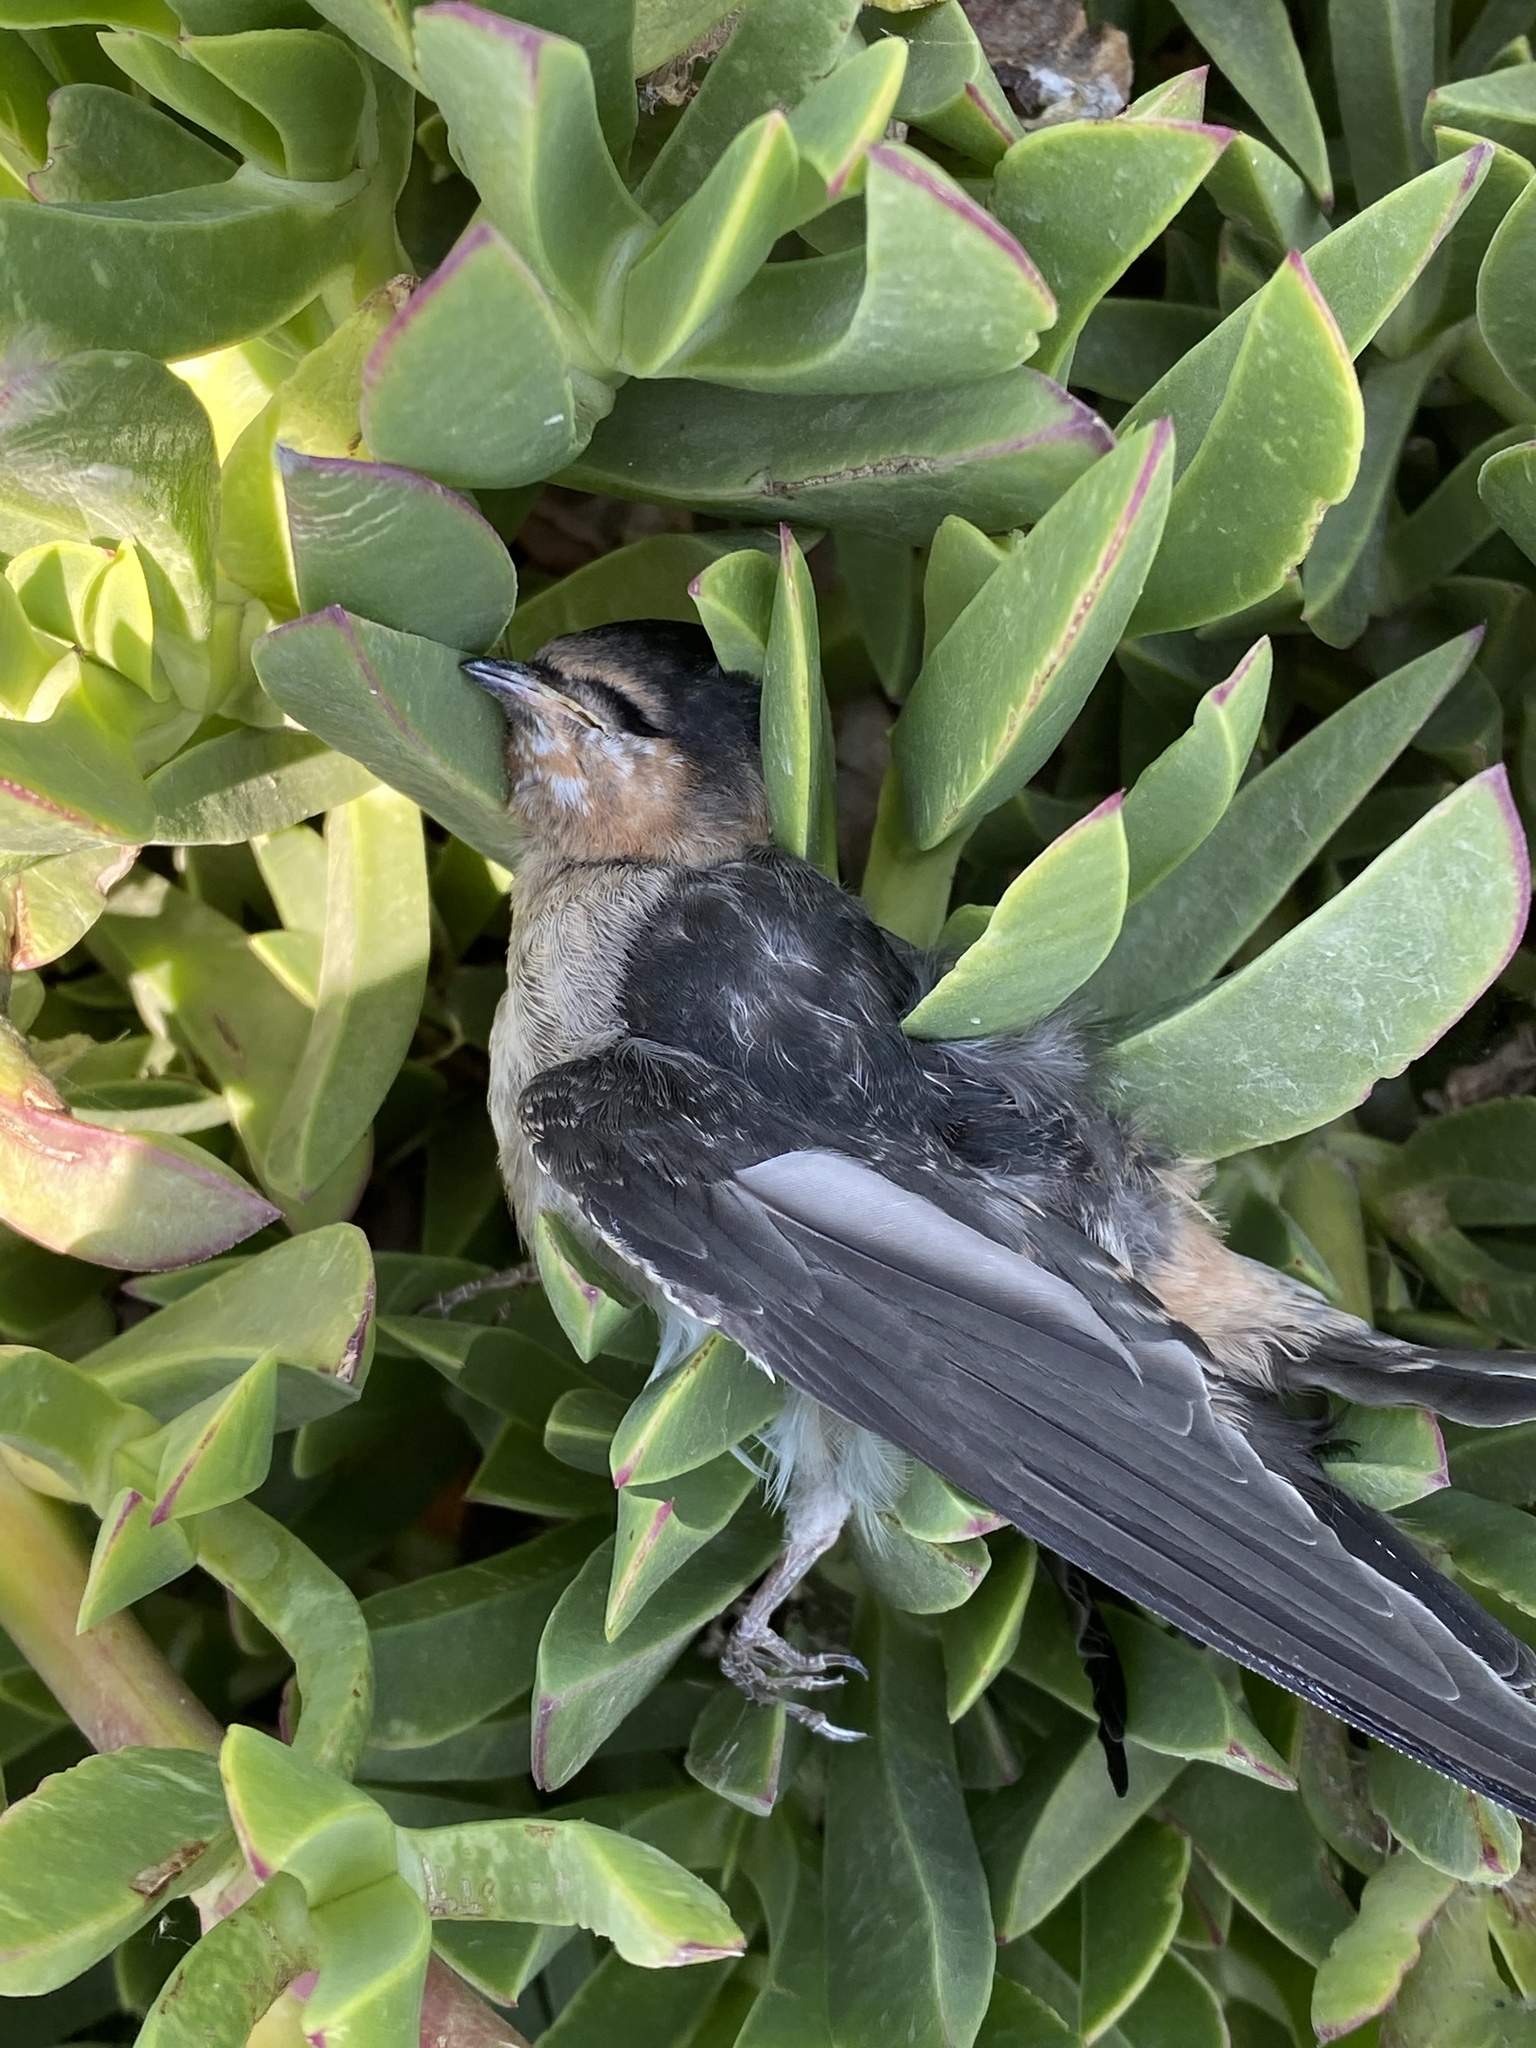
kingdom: Animalia
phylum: Chordata
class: Aves
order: Passeriformes
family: Hirundinidae
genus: Petrochelidon
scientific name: Petrochelidon pyrrhonota
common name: American cliff swallow
